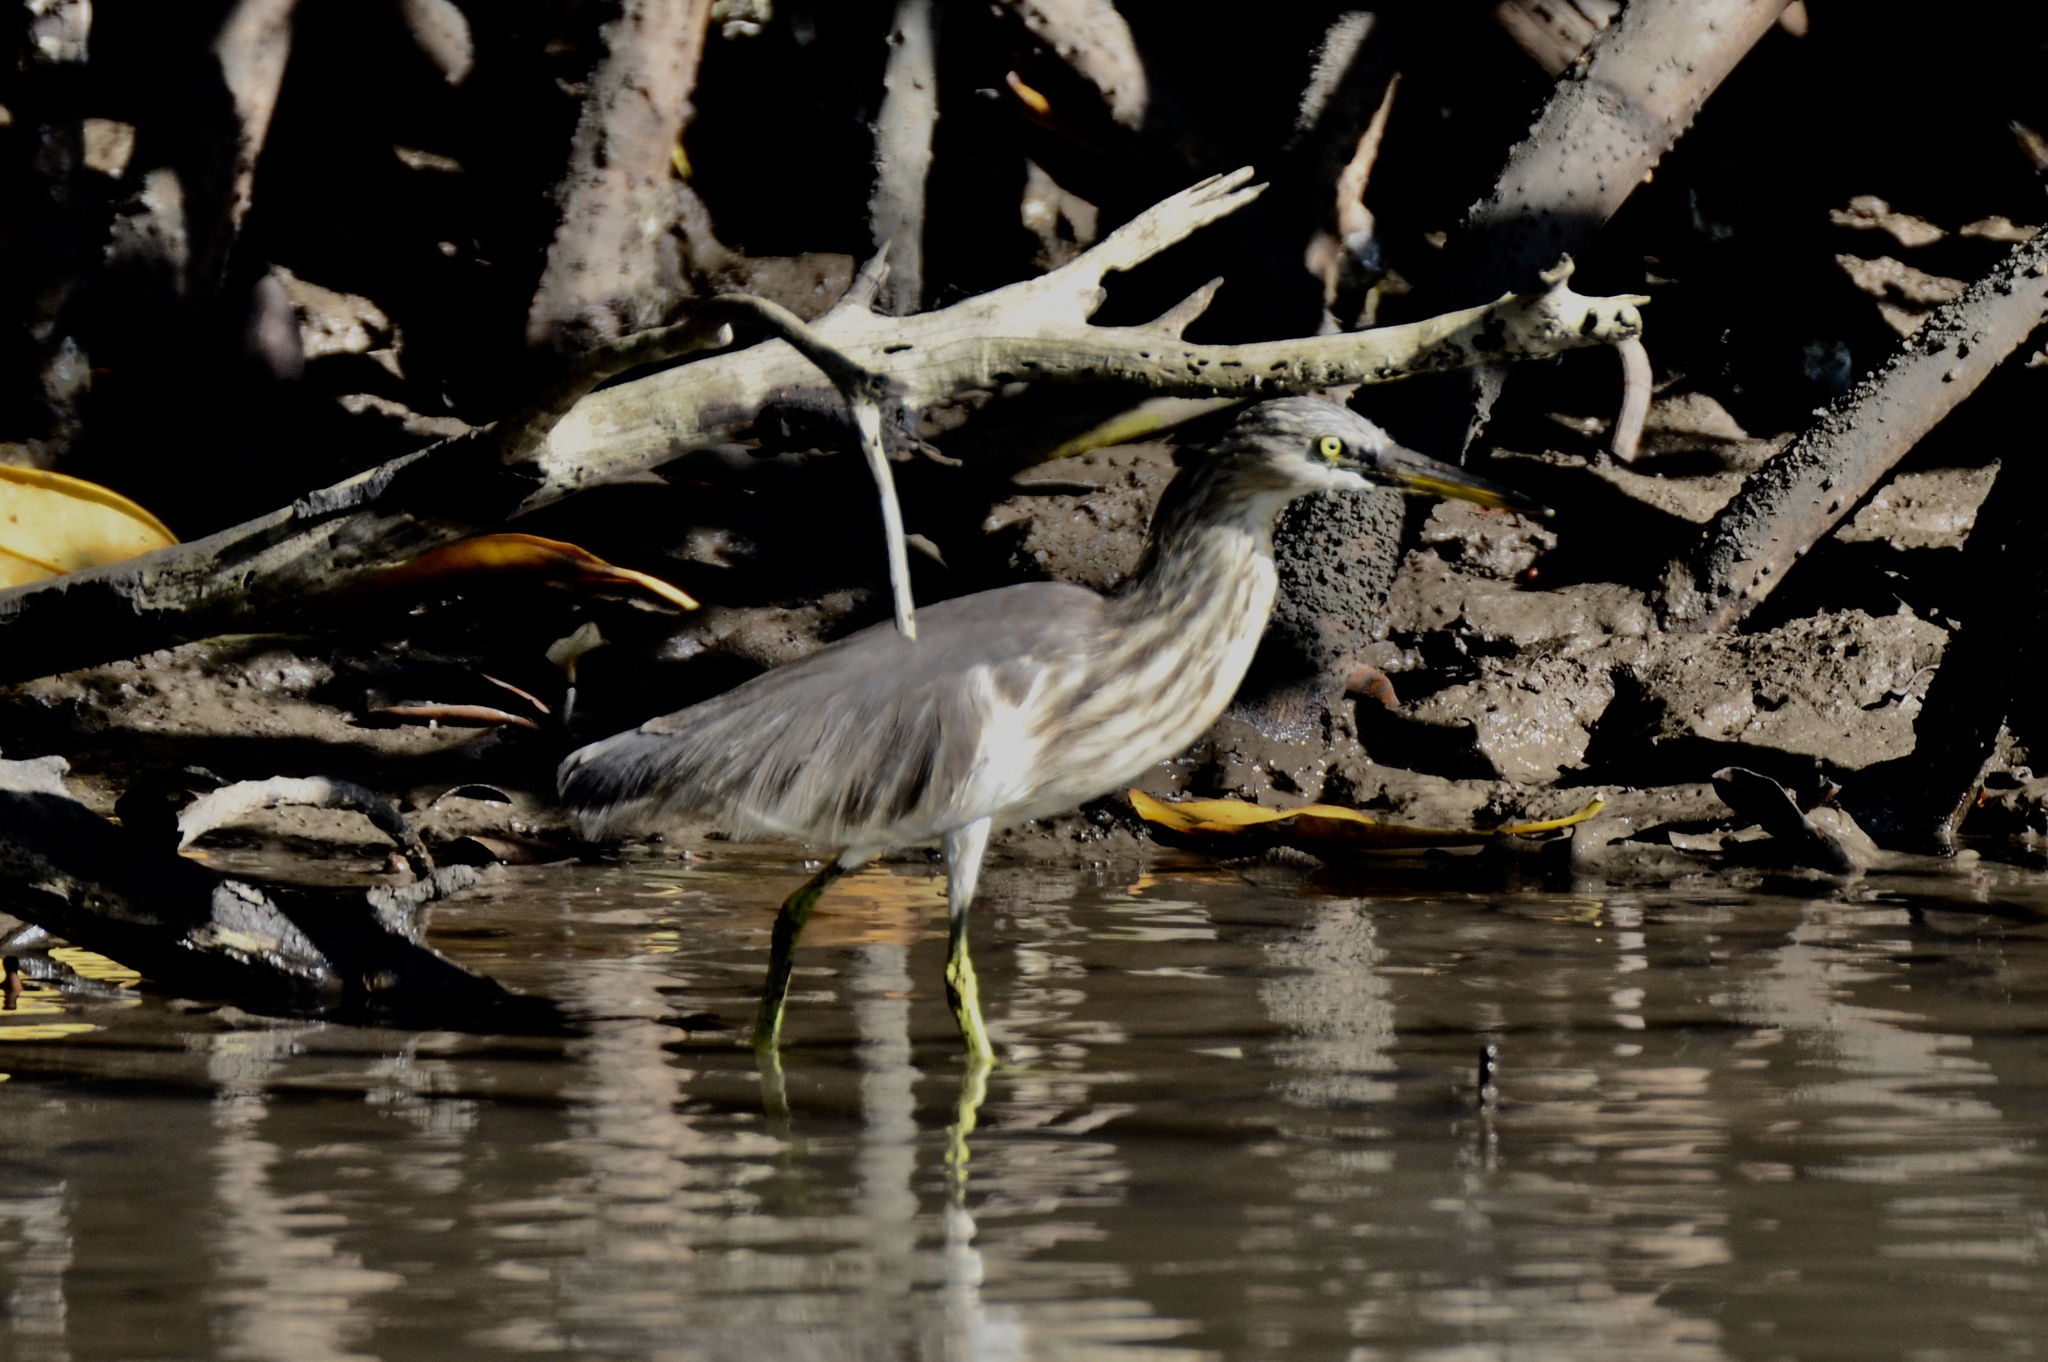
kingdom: Animalia
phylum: Chordata
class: Aves
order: Pelecaniformes
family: Ardeidae
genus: Ardeola
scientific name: Ardeola speciosa
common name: Javan pond heron
